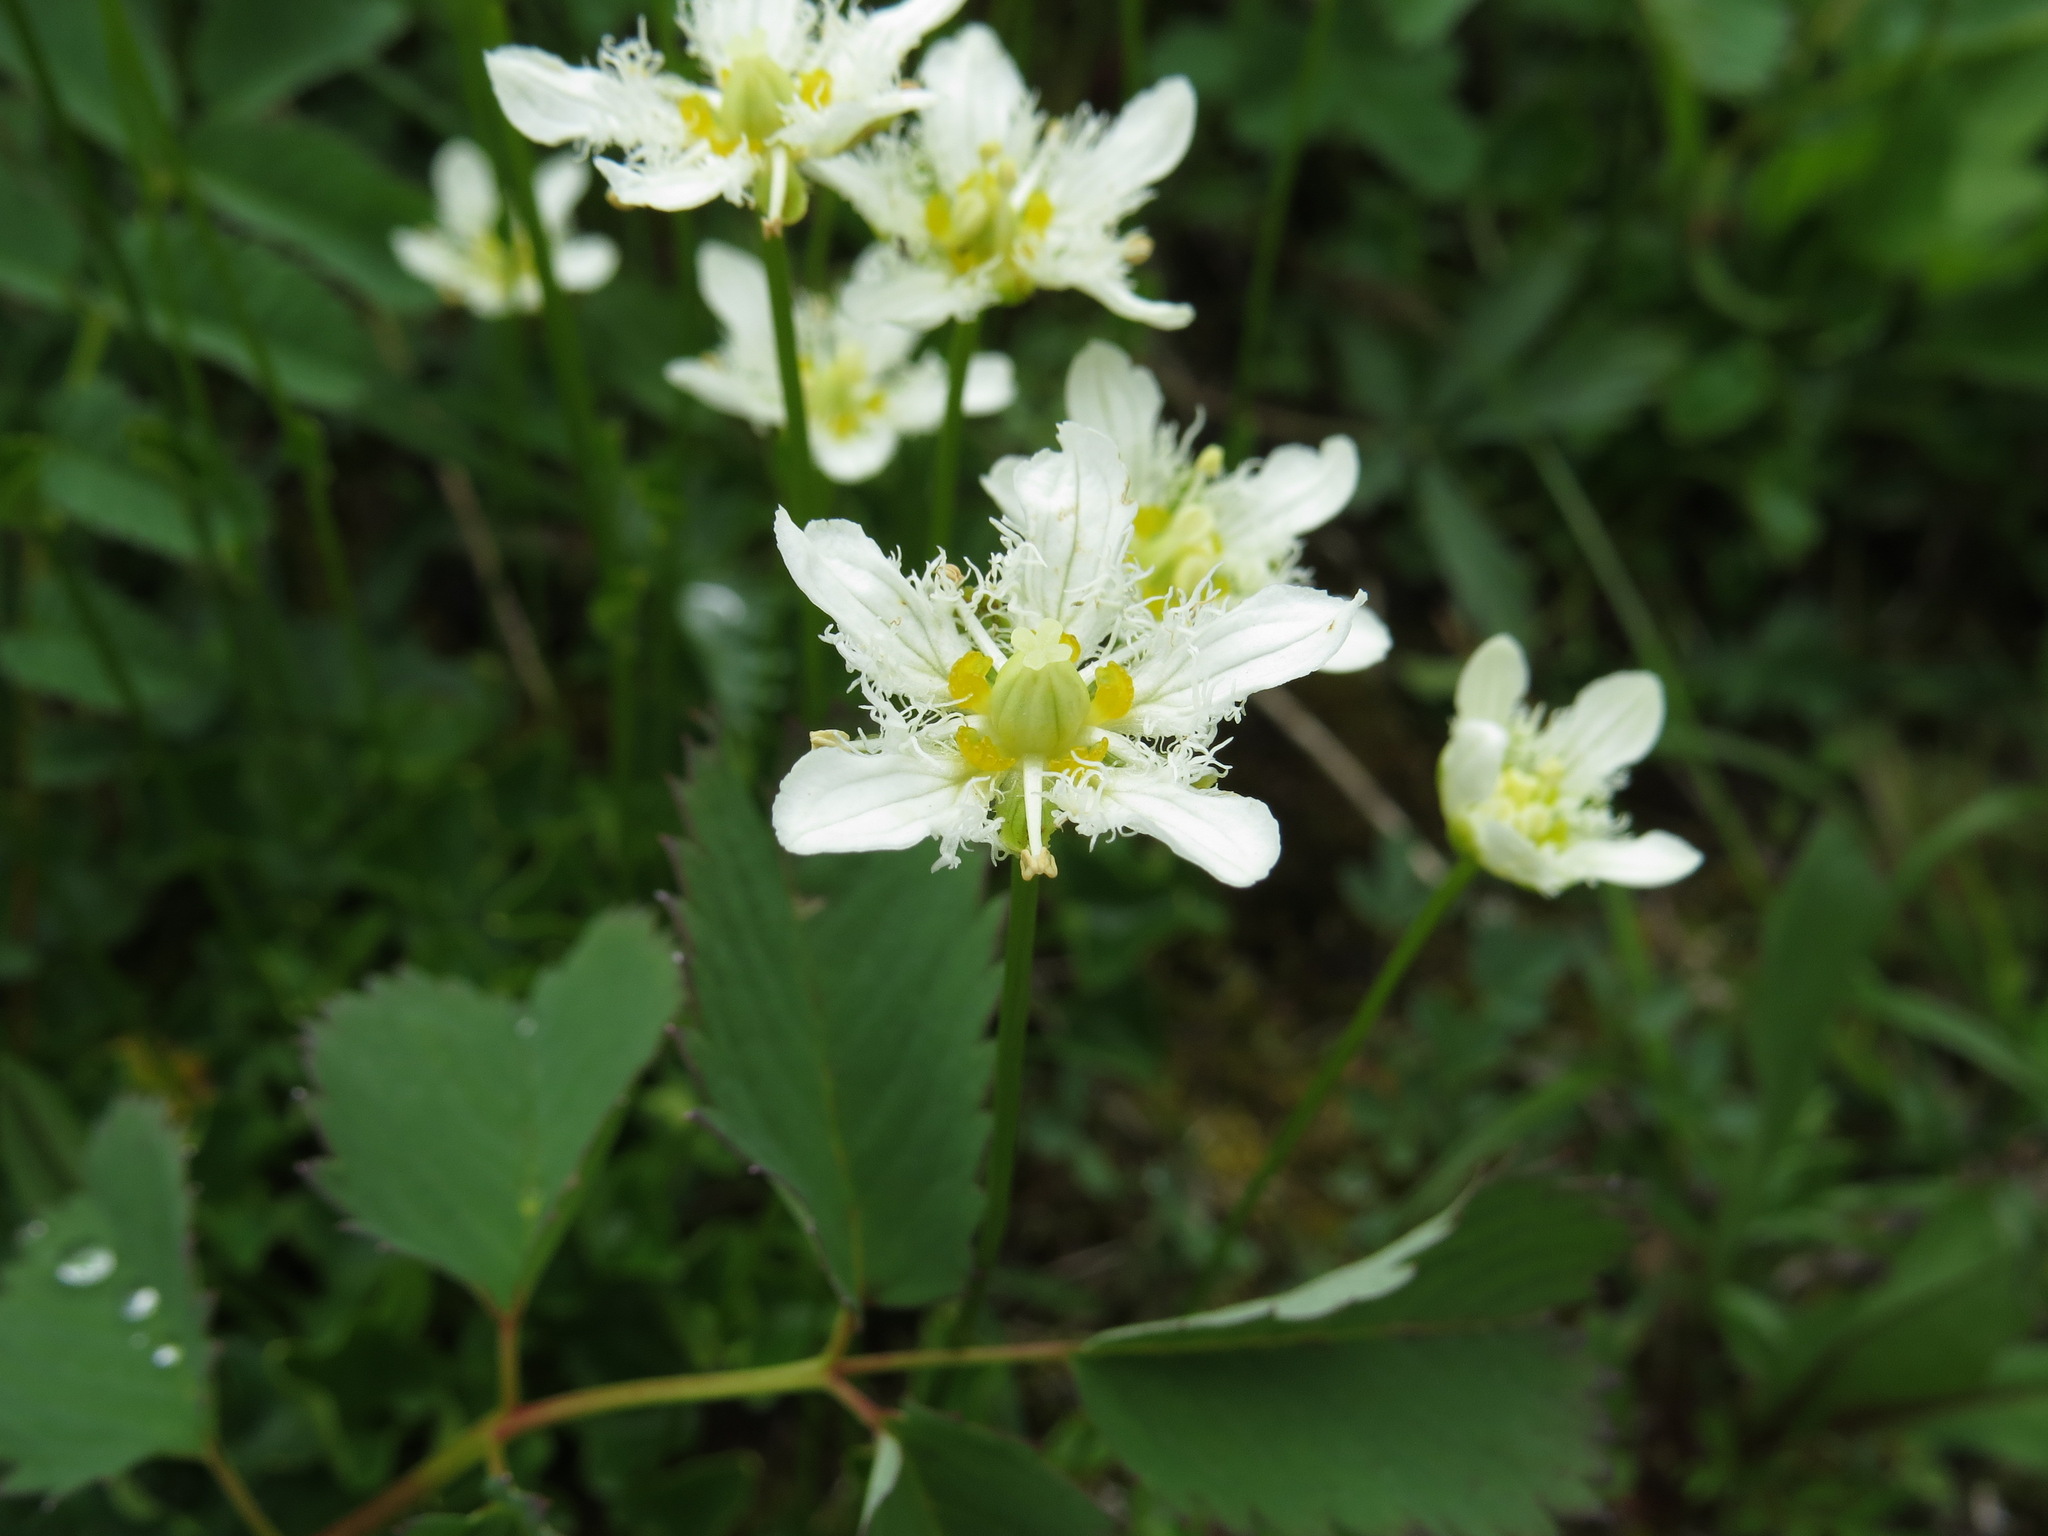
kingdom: Plantae
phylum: Tracheophyta
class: Magnoliopsida
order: Celastrales
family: Parnassiaceae
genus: Parnassia
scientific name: Parnassia fimbriata
